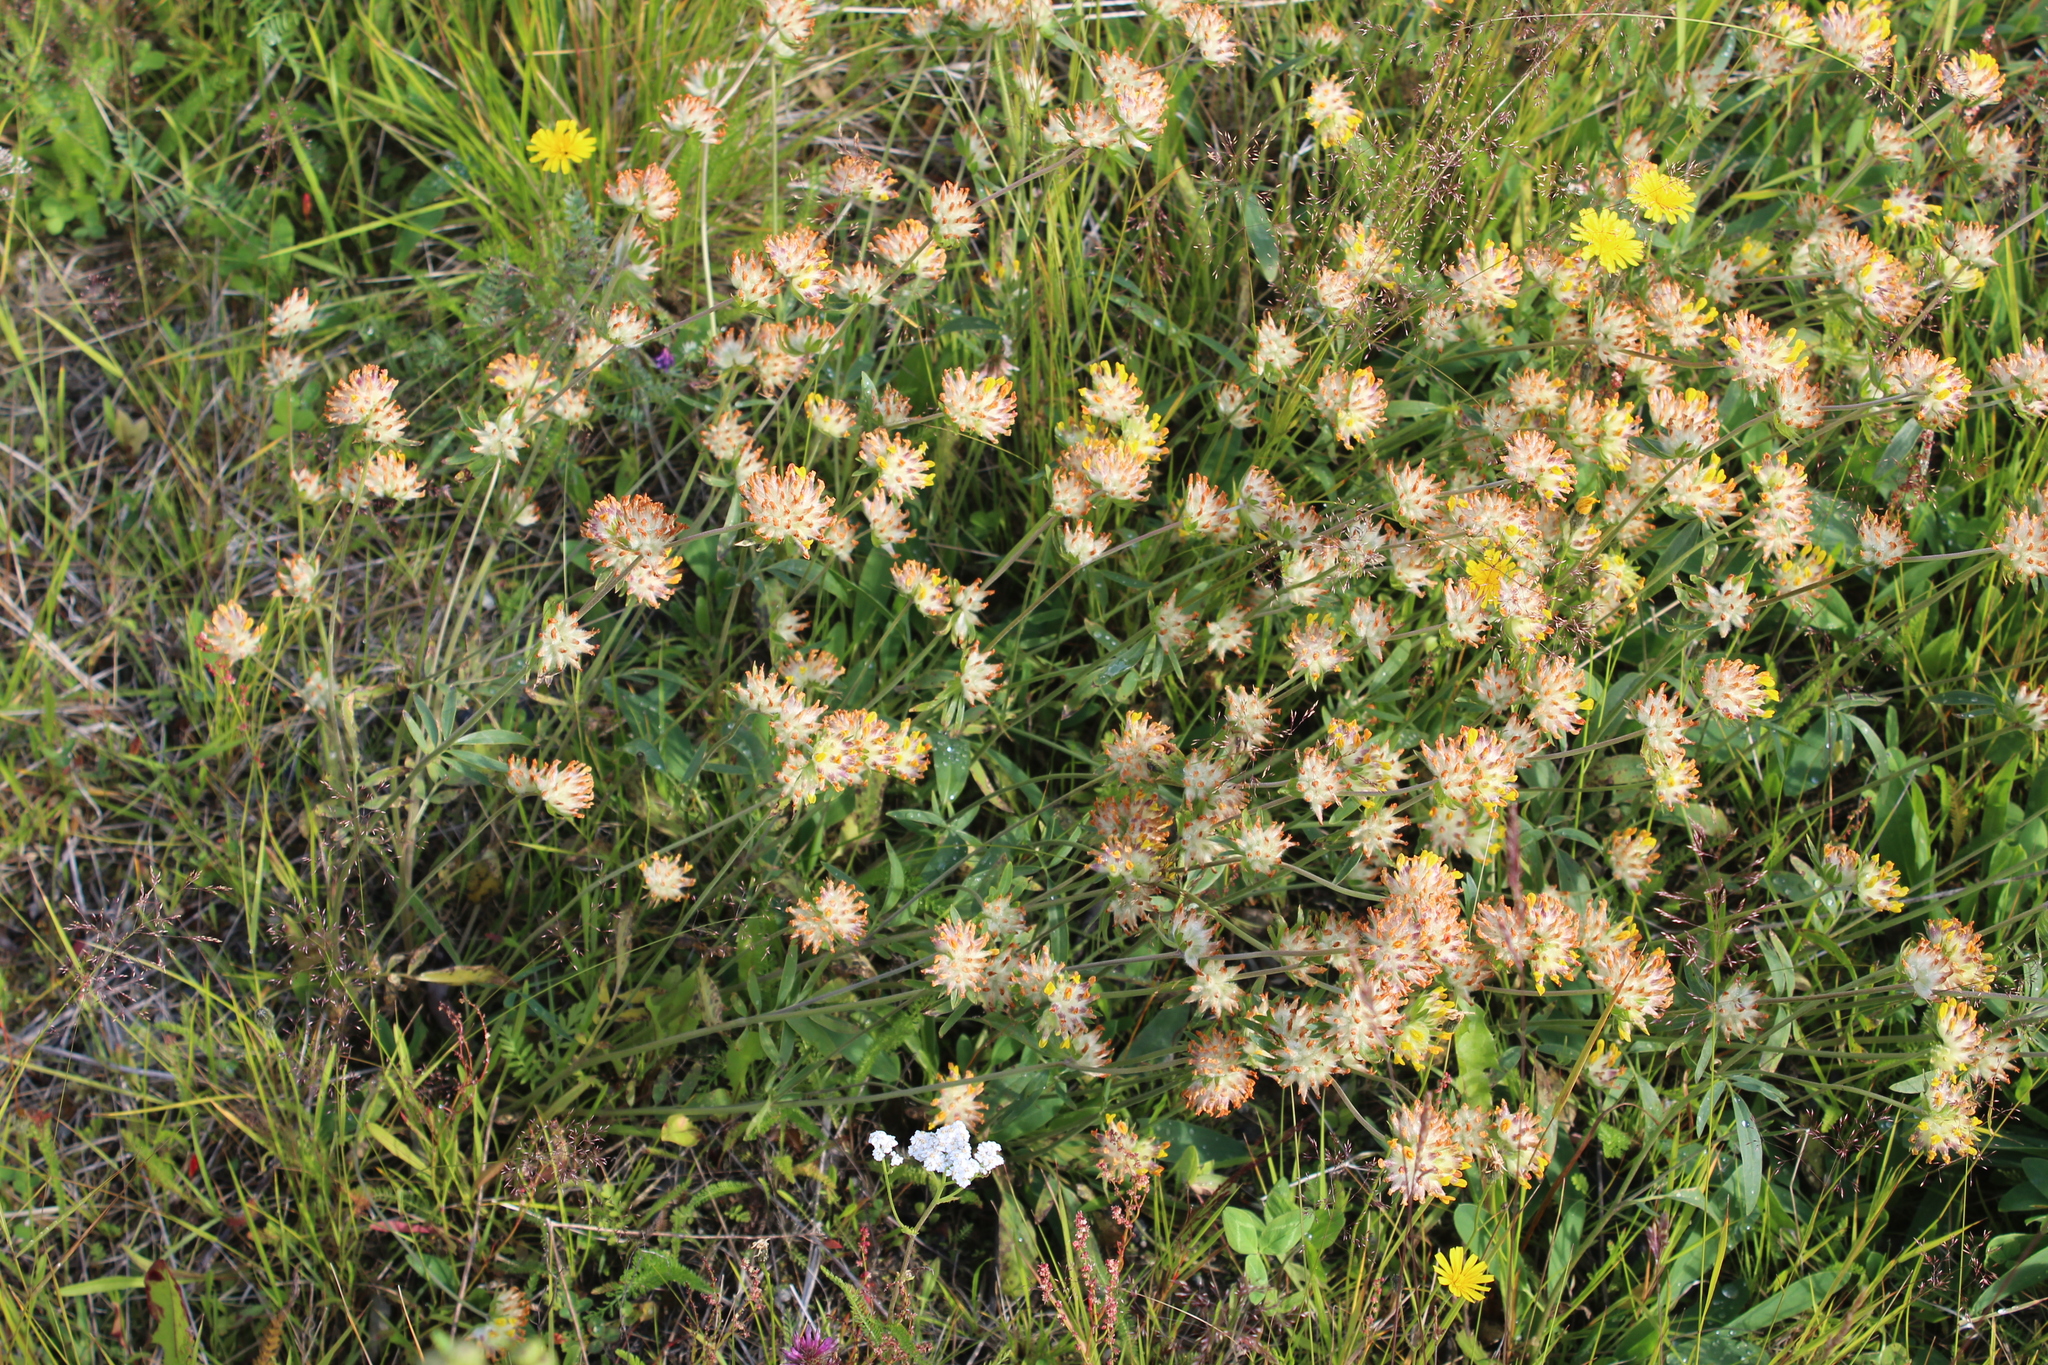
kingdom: Plantae
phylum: Tracheophyta
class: Magnoliopsida
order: Fabales
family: Fabaceae
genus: Anthyllis
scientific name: Anthyllis vulneraria
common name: Kidney vetch
